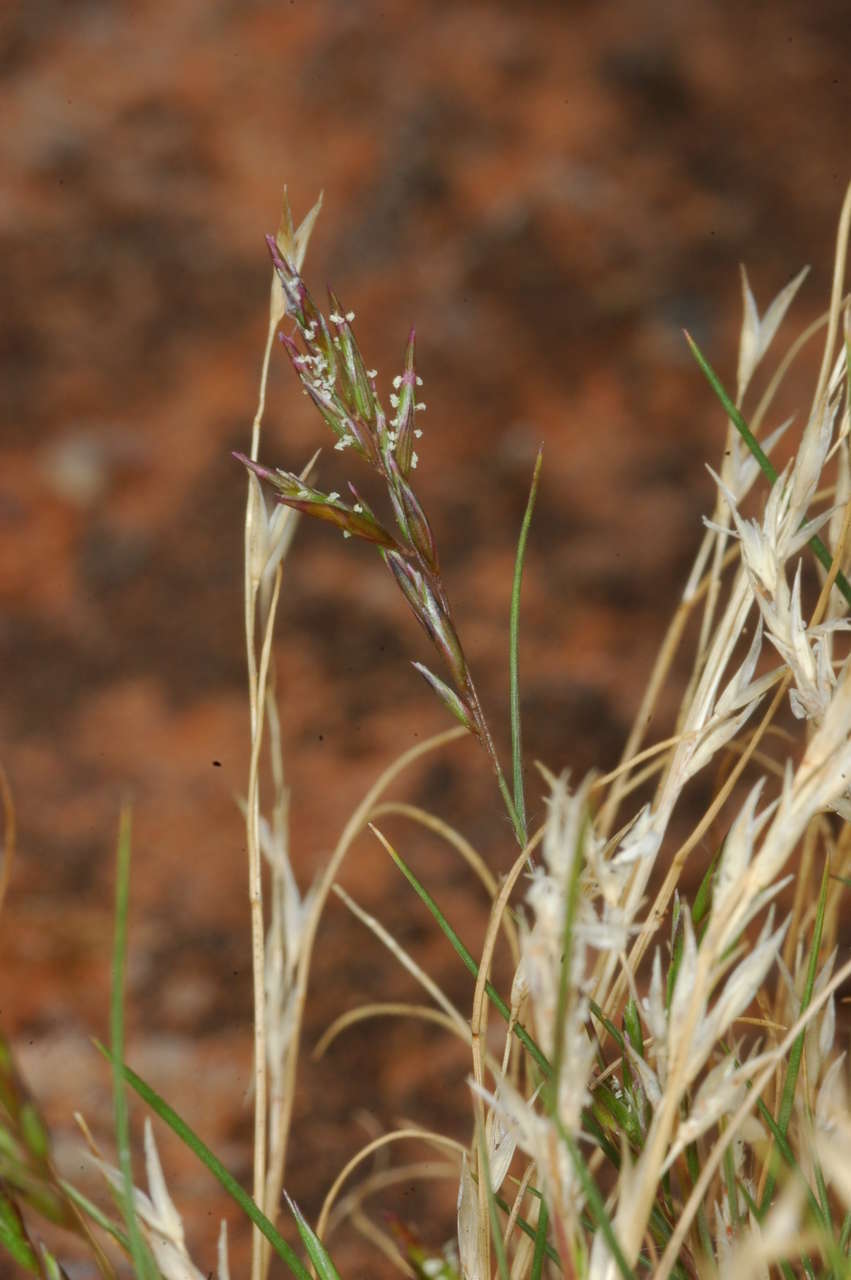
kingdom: Plantae
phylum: Tracheophyta
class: Liliopsida
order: Poales
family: Poaceae
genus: Schismus
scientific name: Schismus barbatus
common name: Kelch-grass
